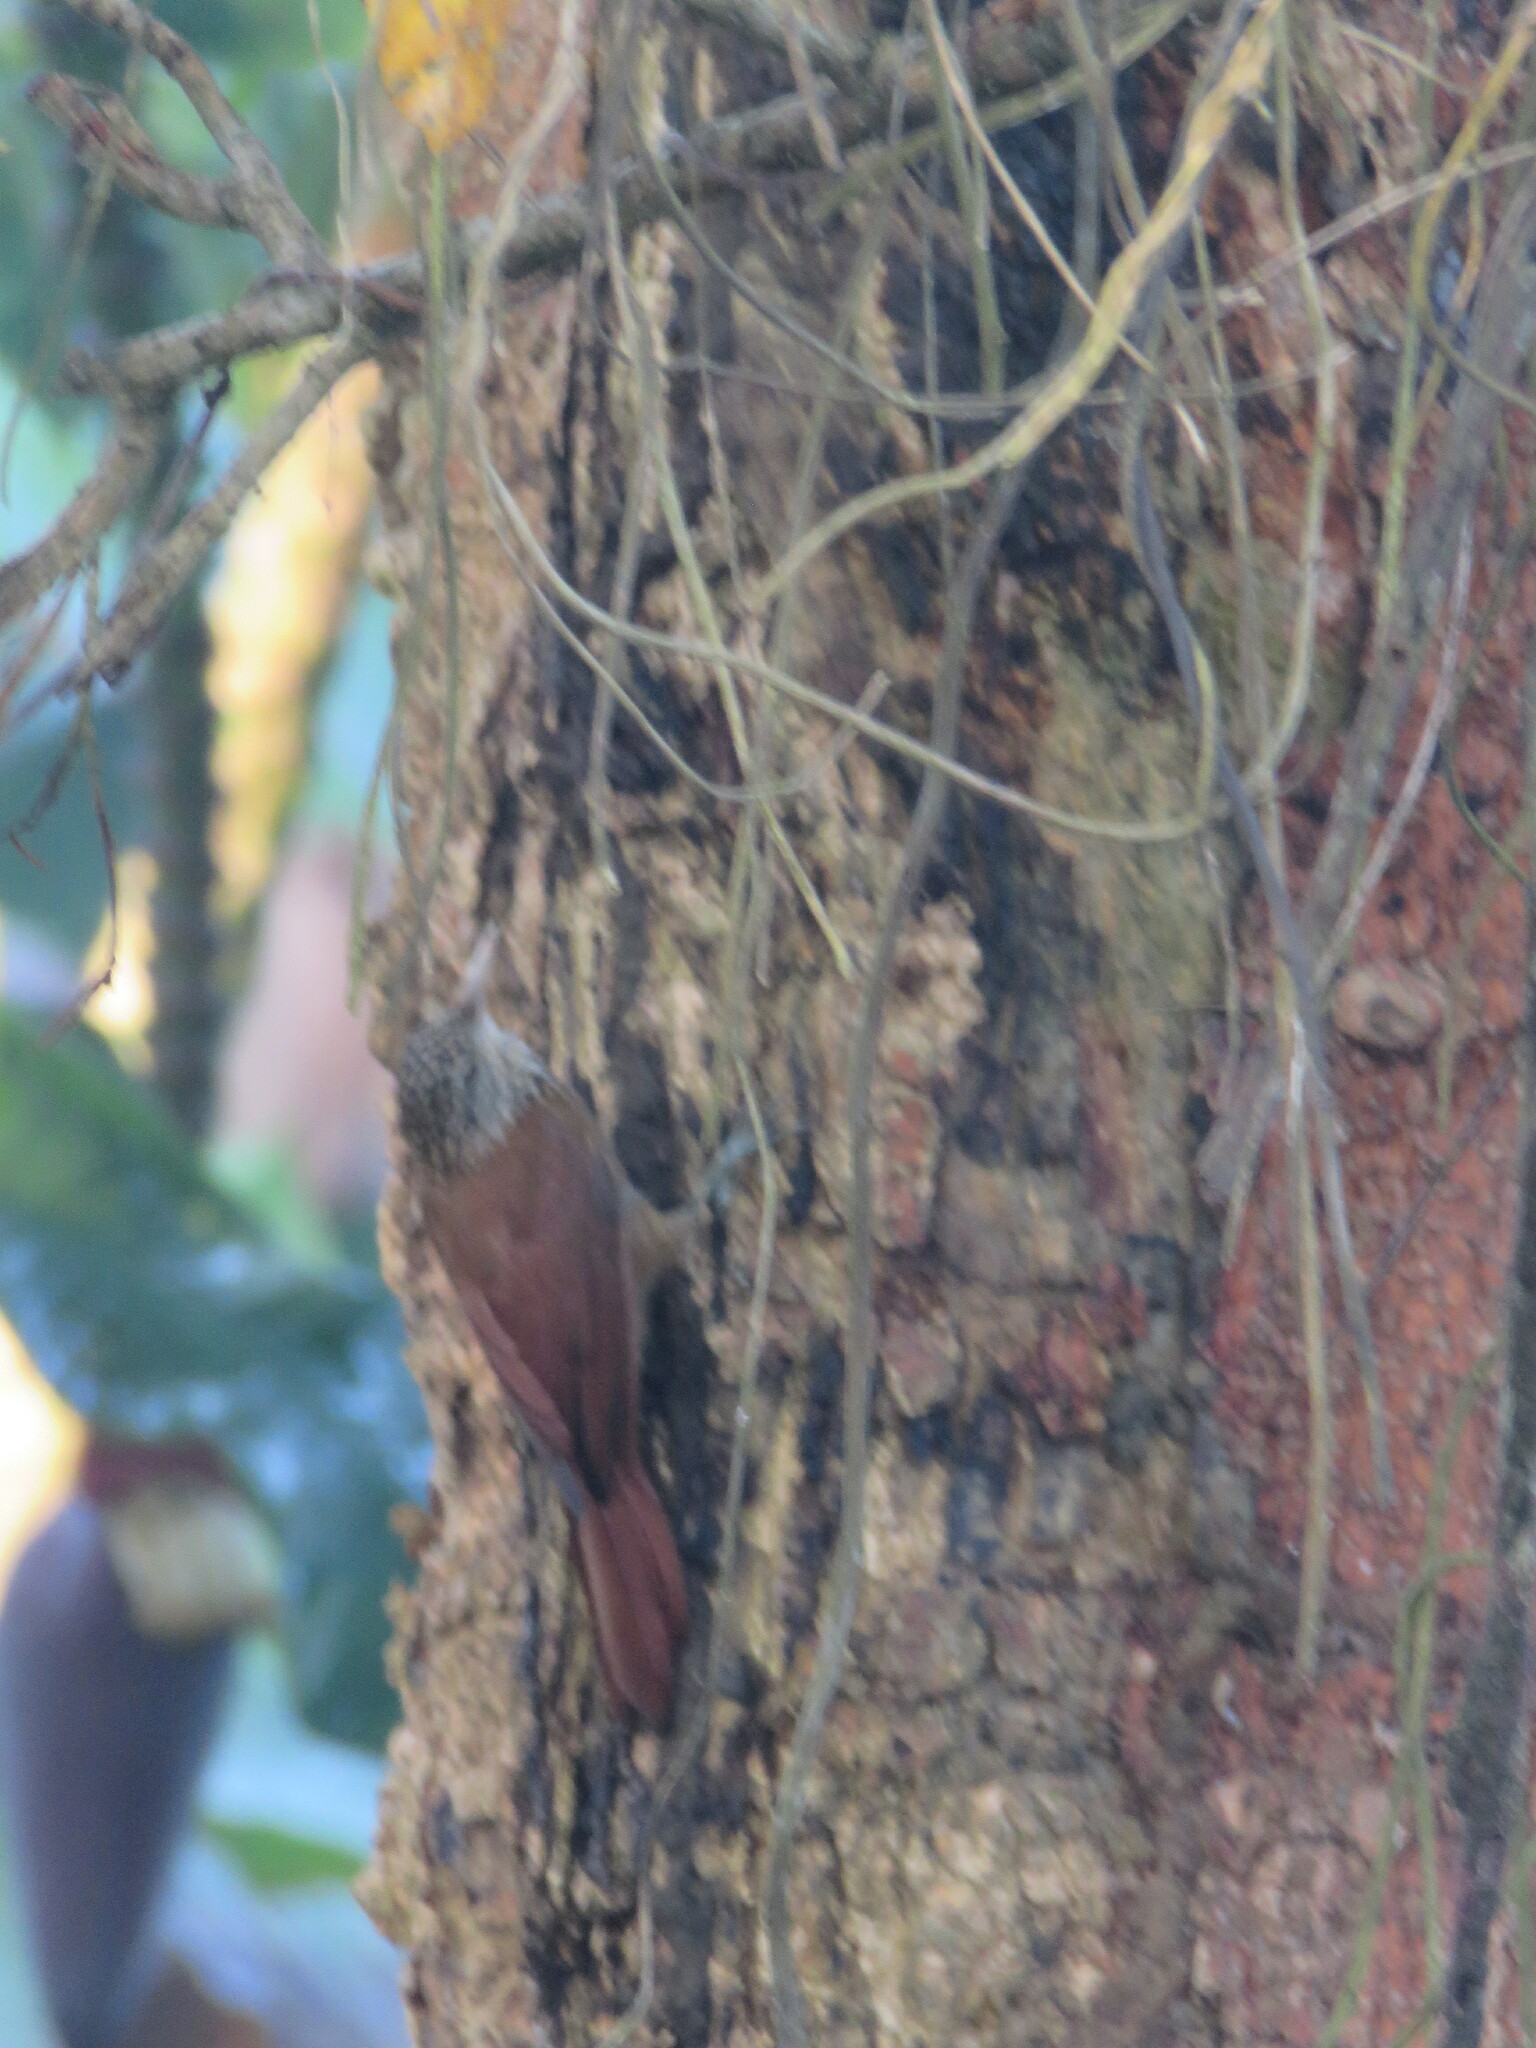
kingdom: Animalia
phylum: Chordata
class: Aves
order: Passeriformes
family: Furnariidae
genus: Xiphorhynchus
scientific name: Xiphorhynchus picus
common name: Straight-billed woodcreeper
